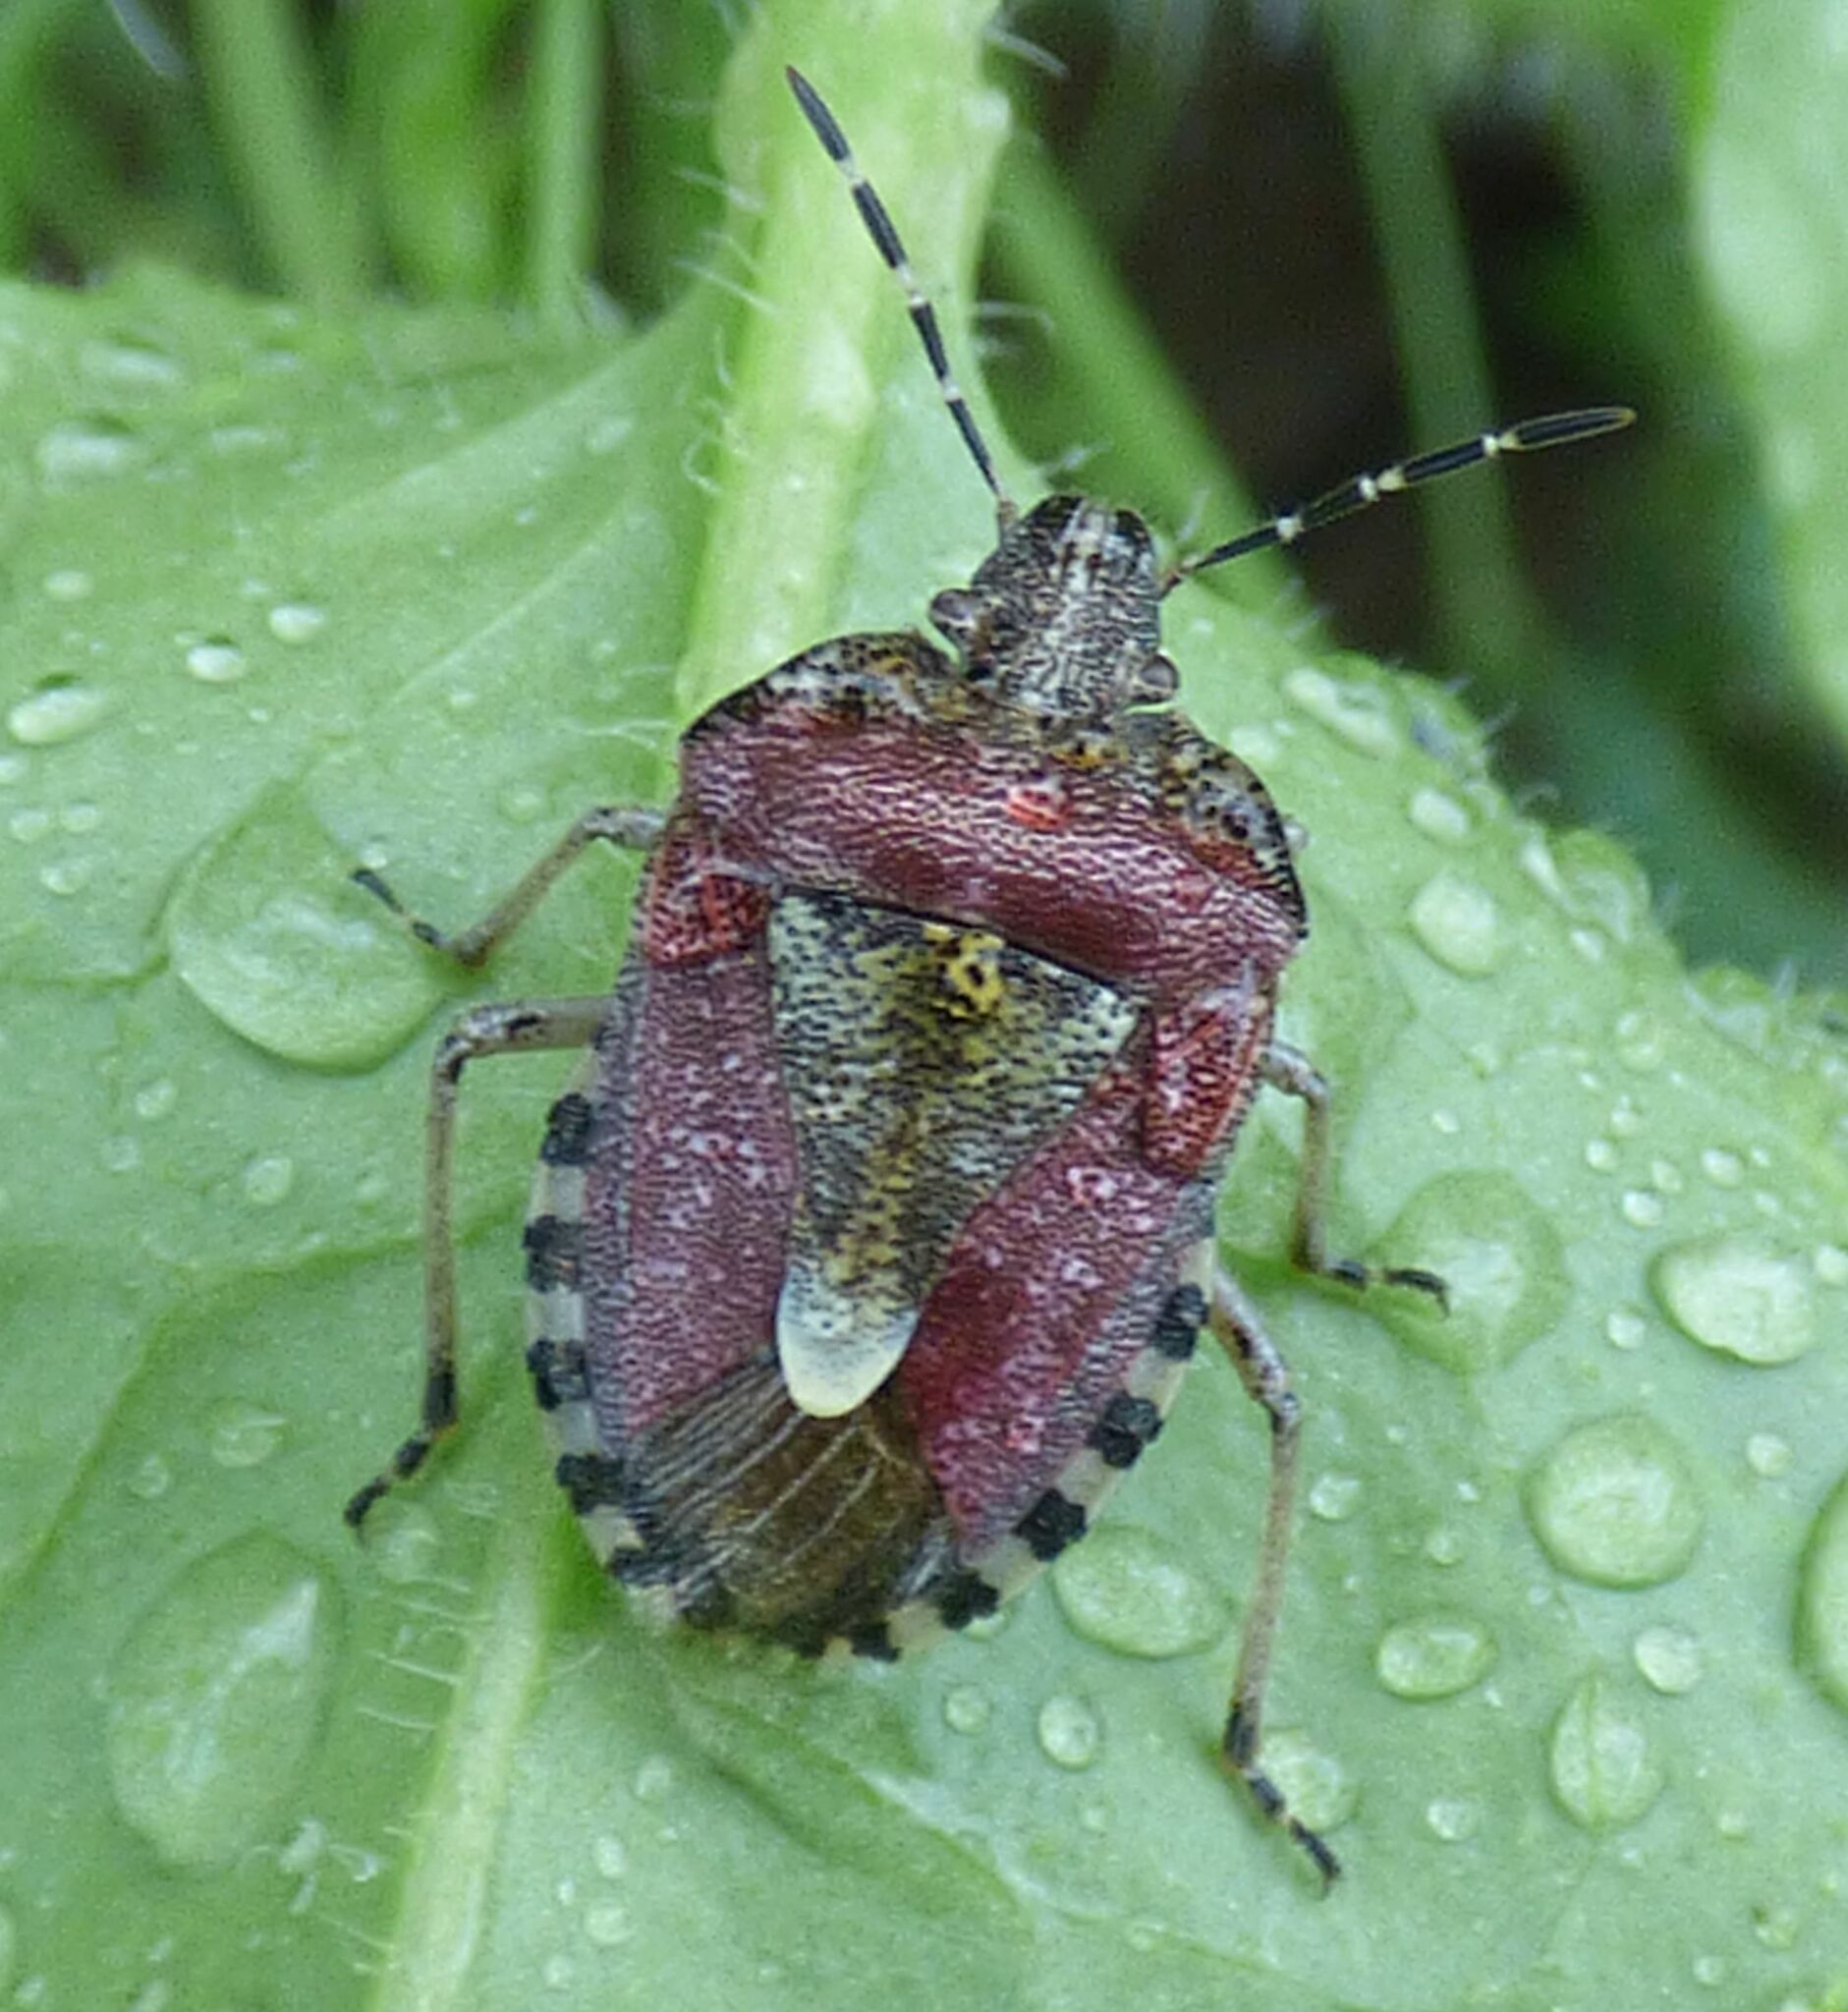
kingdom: Animalia
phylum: Arthropoda
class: Insecta
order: Hemiptera
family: Pentatomidae
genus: Dolycoris
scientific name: Dolycoris baccarum
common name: Sloe bug
